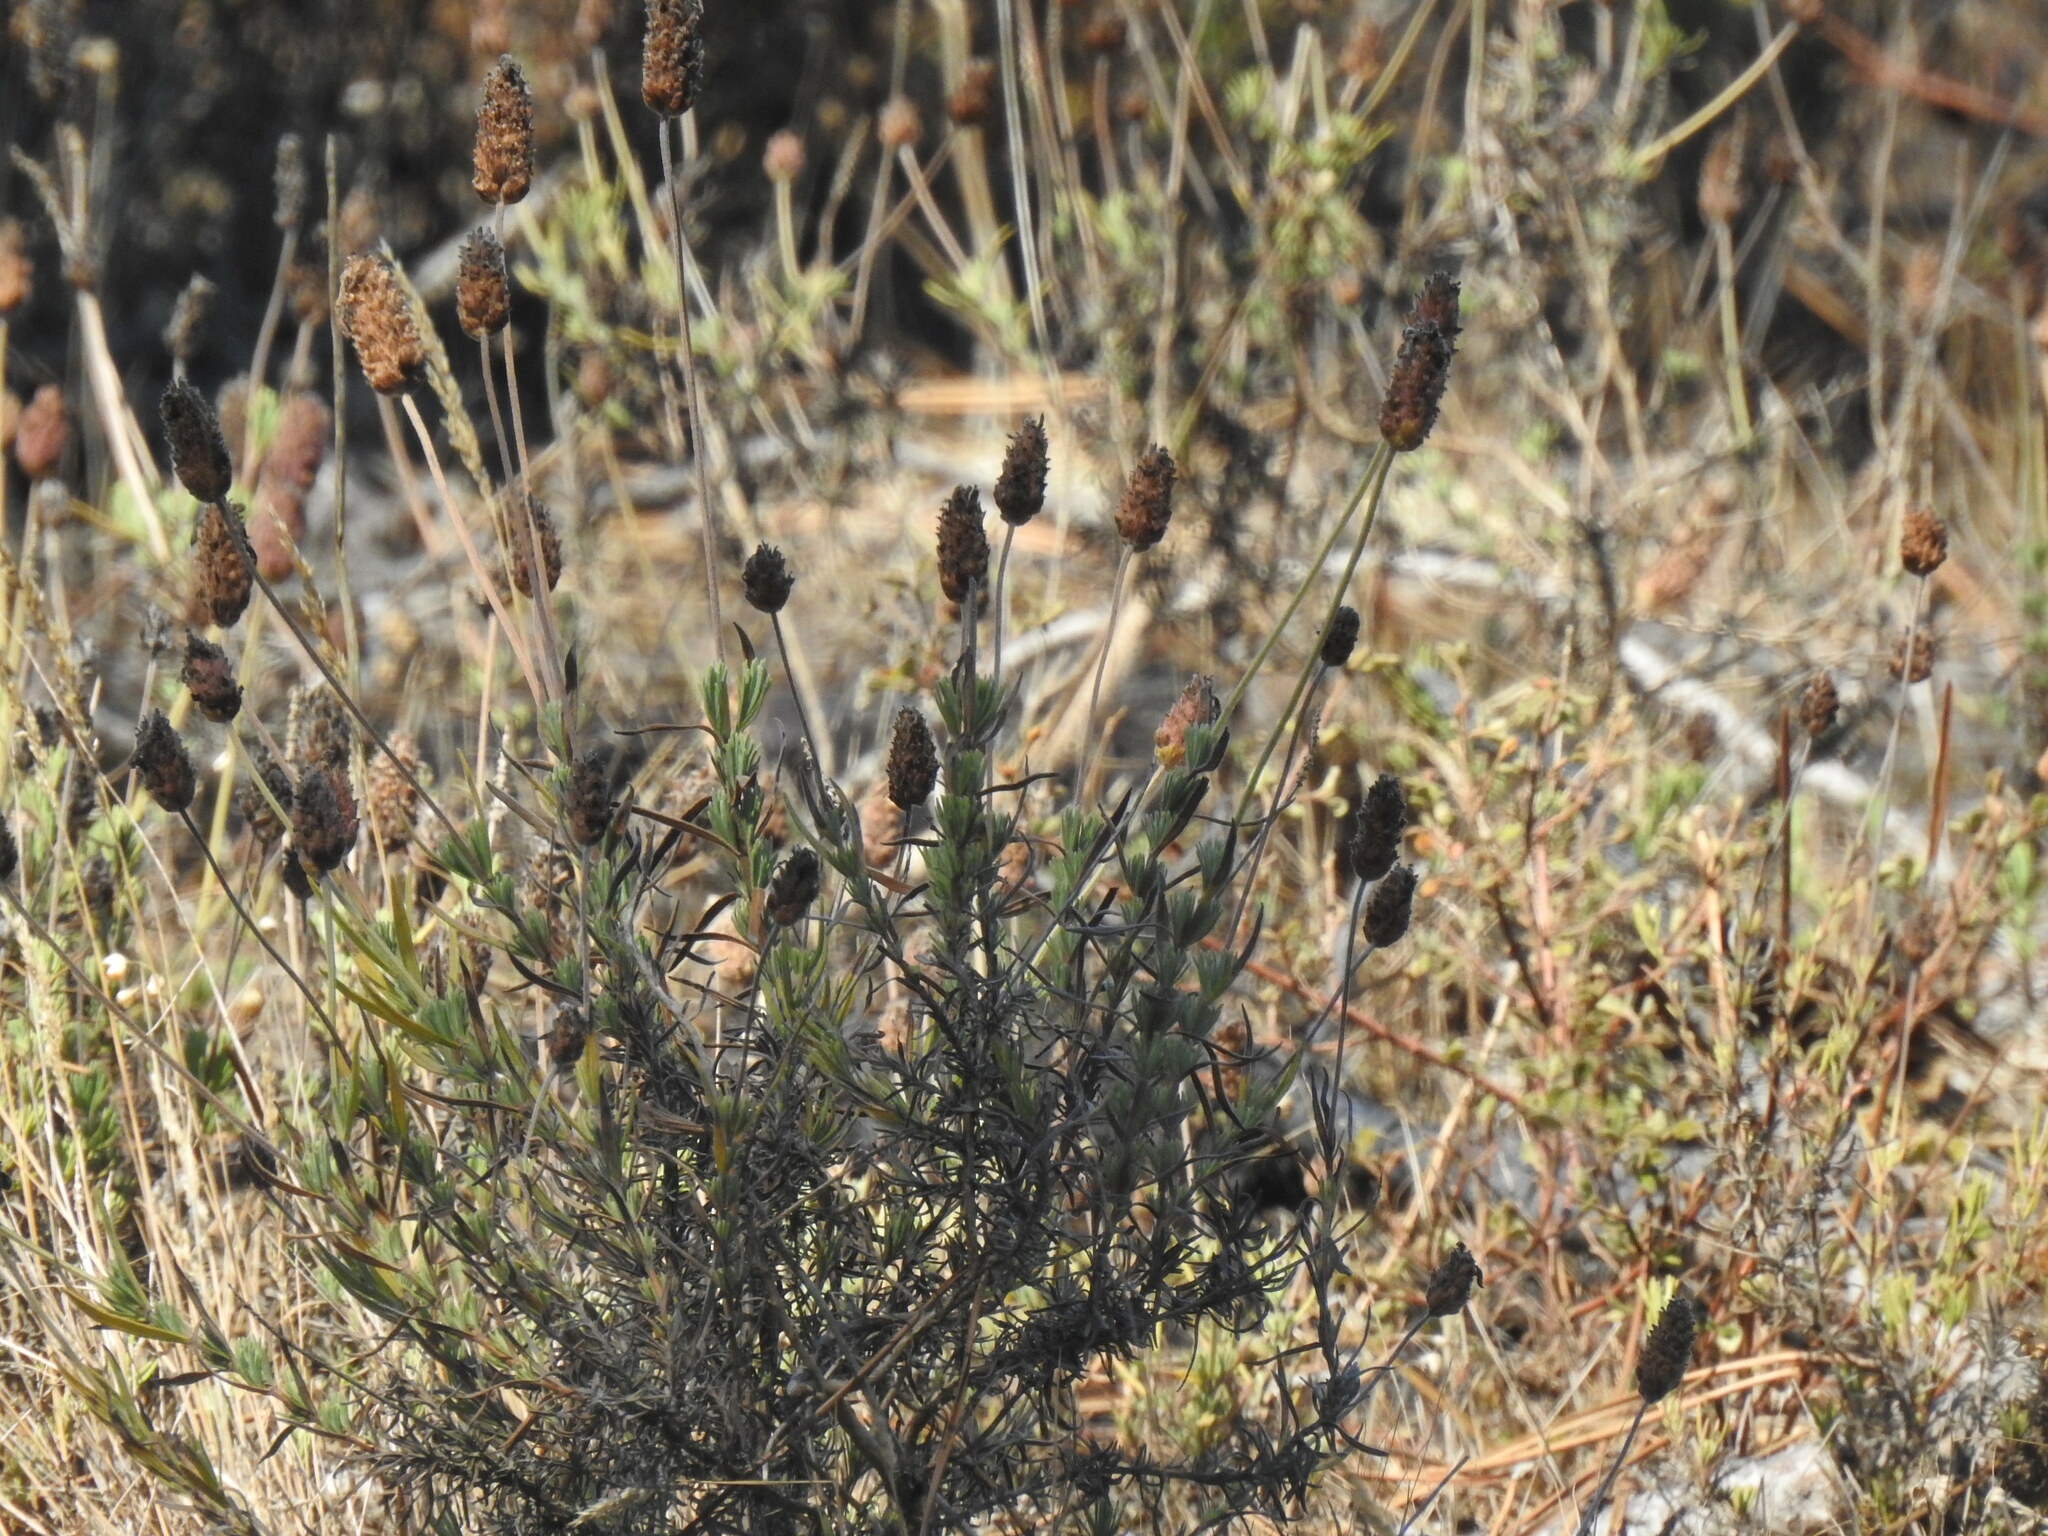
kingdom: Plantae
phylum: Tracheophyta
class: Magnoliopsida
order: Lamiales
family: Lamiaceae
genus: Lavandula
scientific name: Lavandula pedunculata
